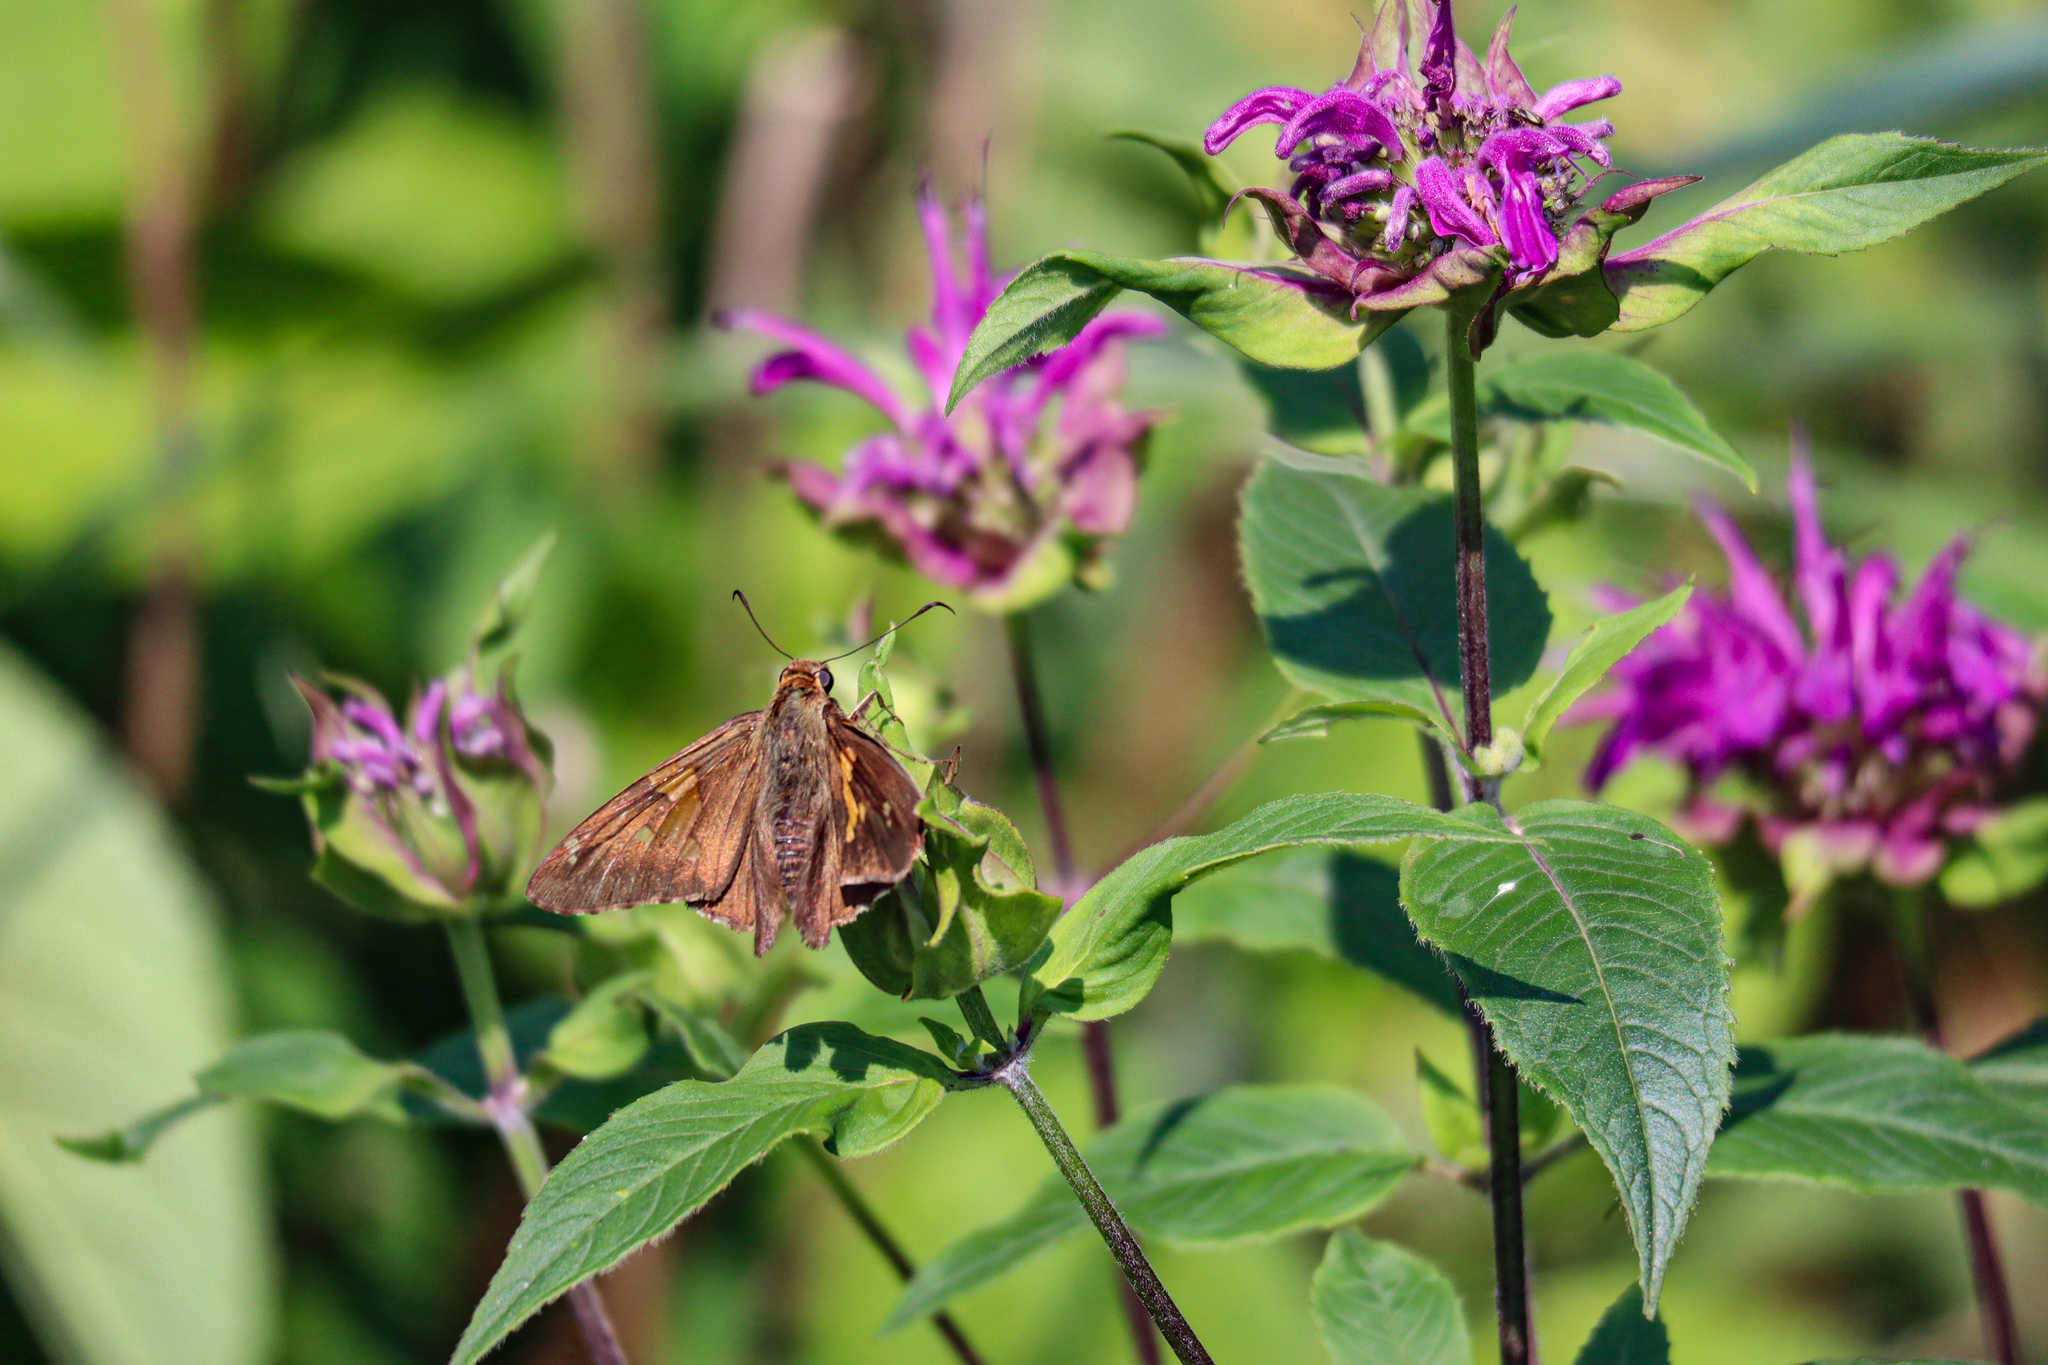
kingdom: Animalia
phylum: Arthropoda
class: Insecta
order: Lepidoptera
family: Hesperiidae
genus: Epargyreus
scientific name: Epargyreus clarus
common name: Silver-spotted skipper
